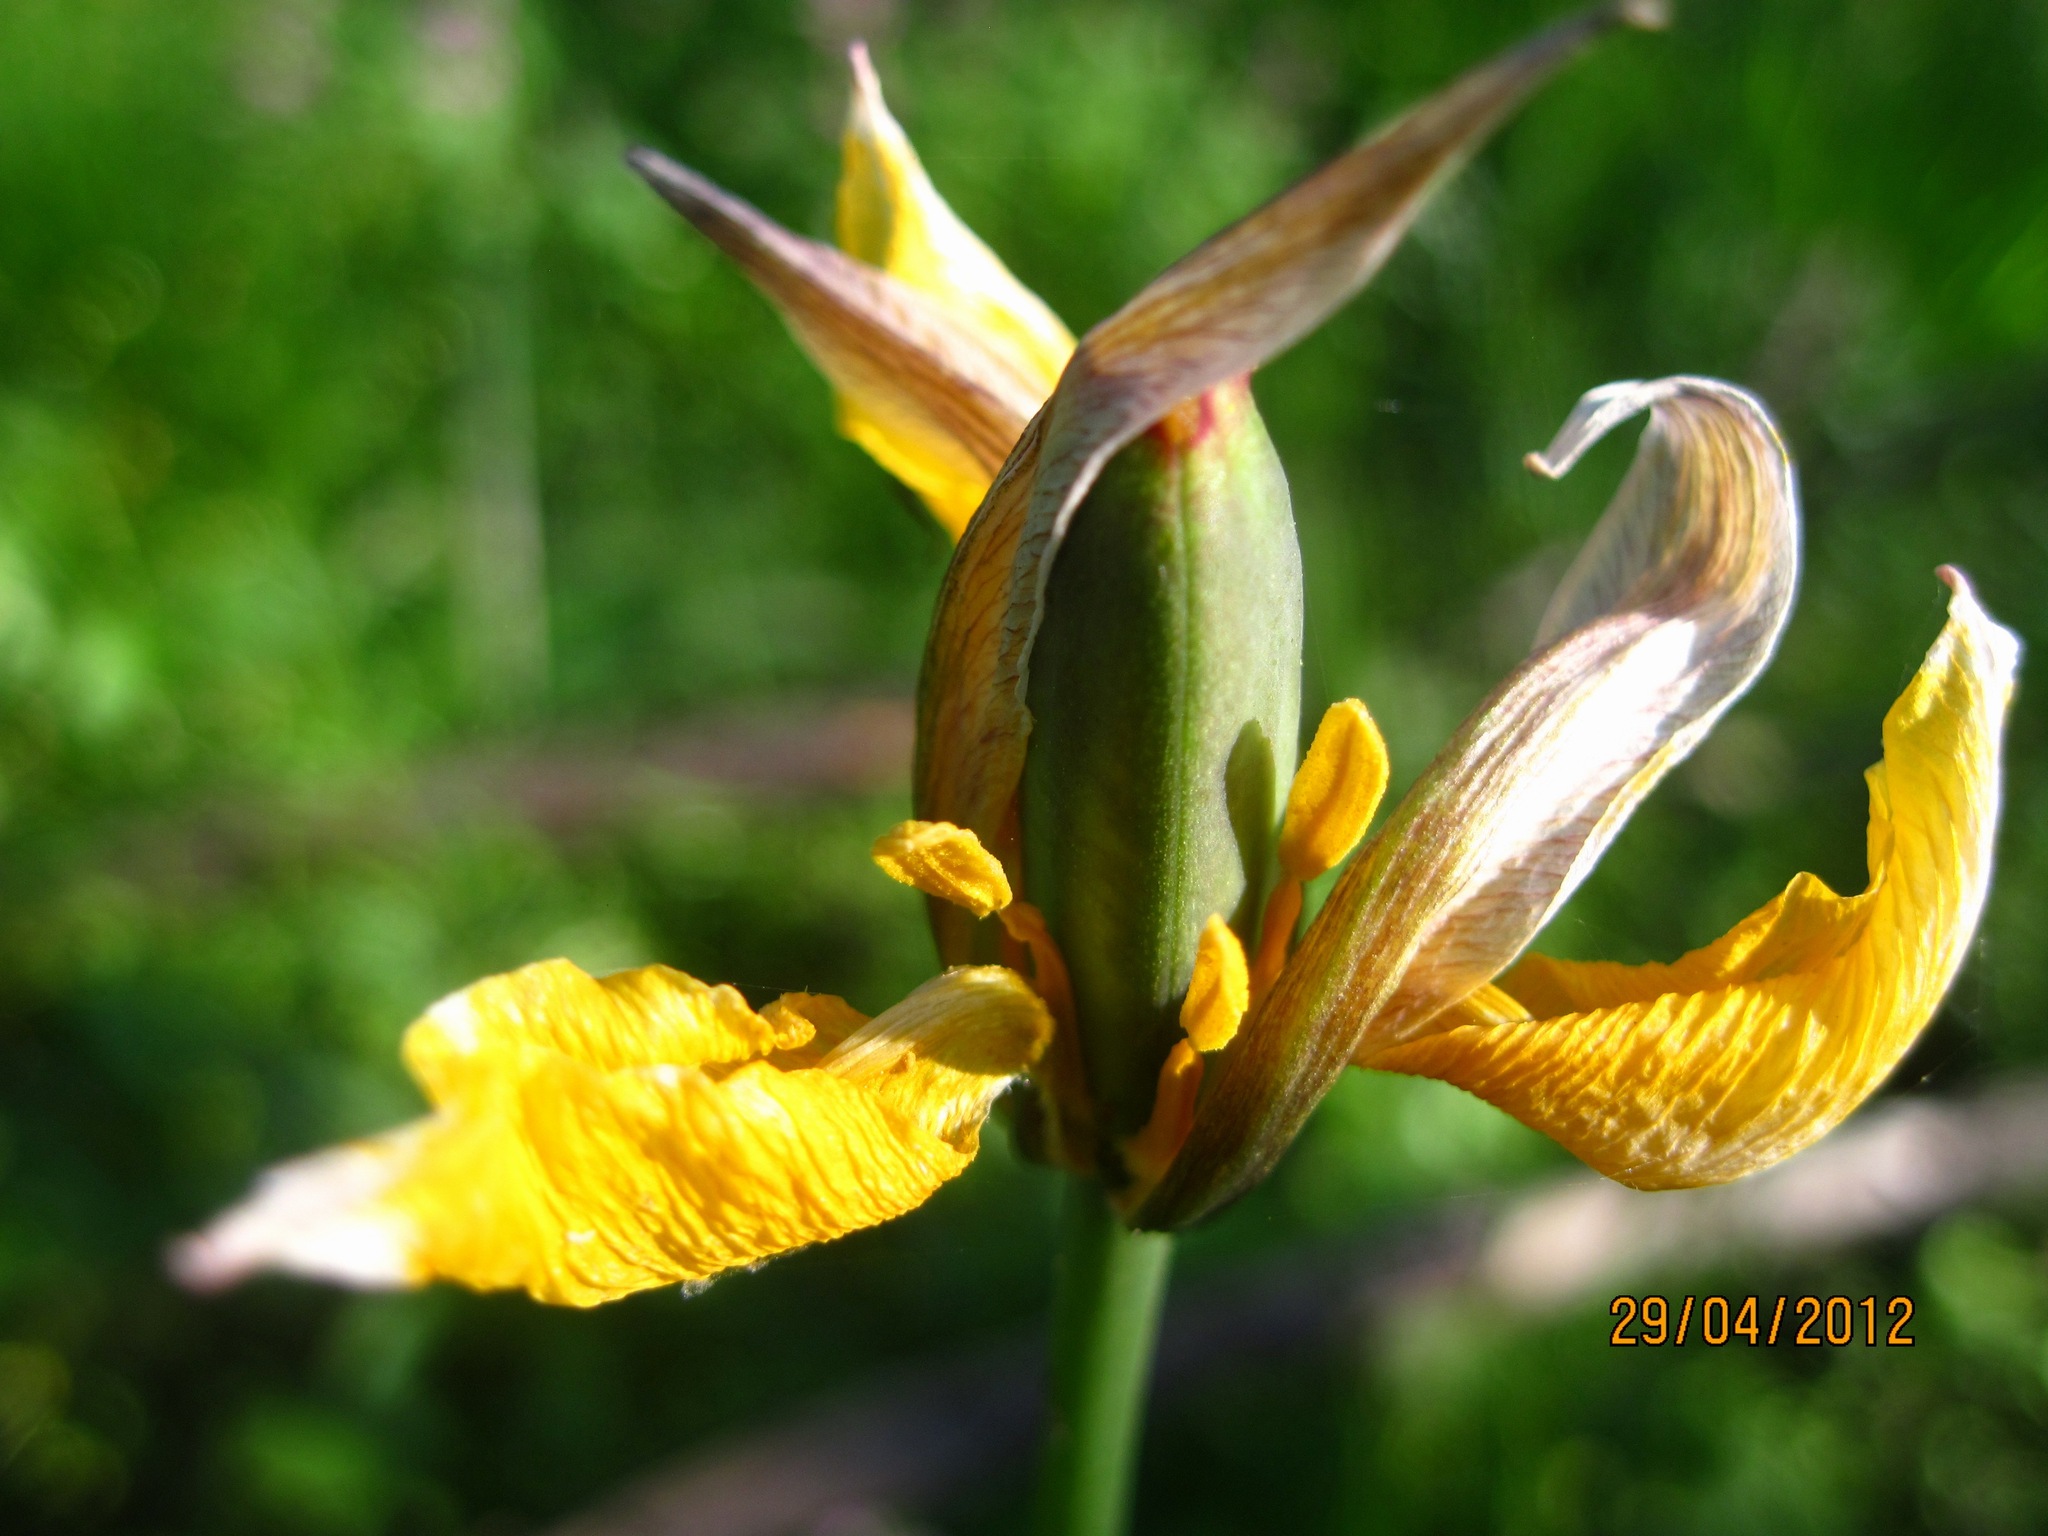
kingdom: Plantae
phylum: Tracheophyta
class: Liliopsida
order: Liliales
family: Liliaceae
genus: Tulipa
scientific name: Tulipa sylvestris
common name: Wild tulip
